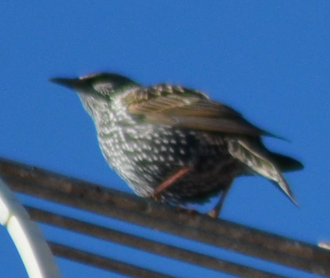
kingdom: Animalia
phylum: Chordata
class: Aves
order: Passeriformes
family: Sturnidae
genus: Sturnus
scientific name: Sturnus vulgaris
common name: Common starling
